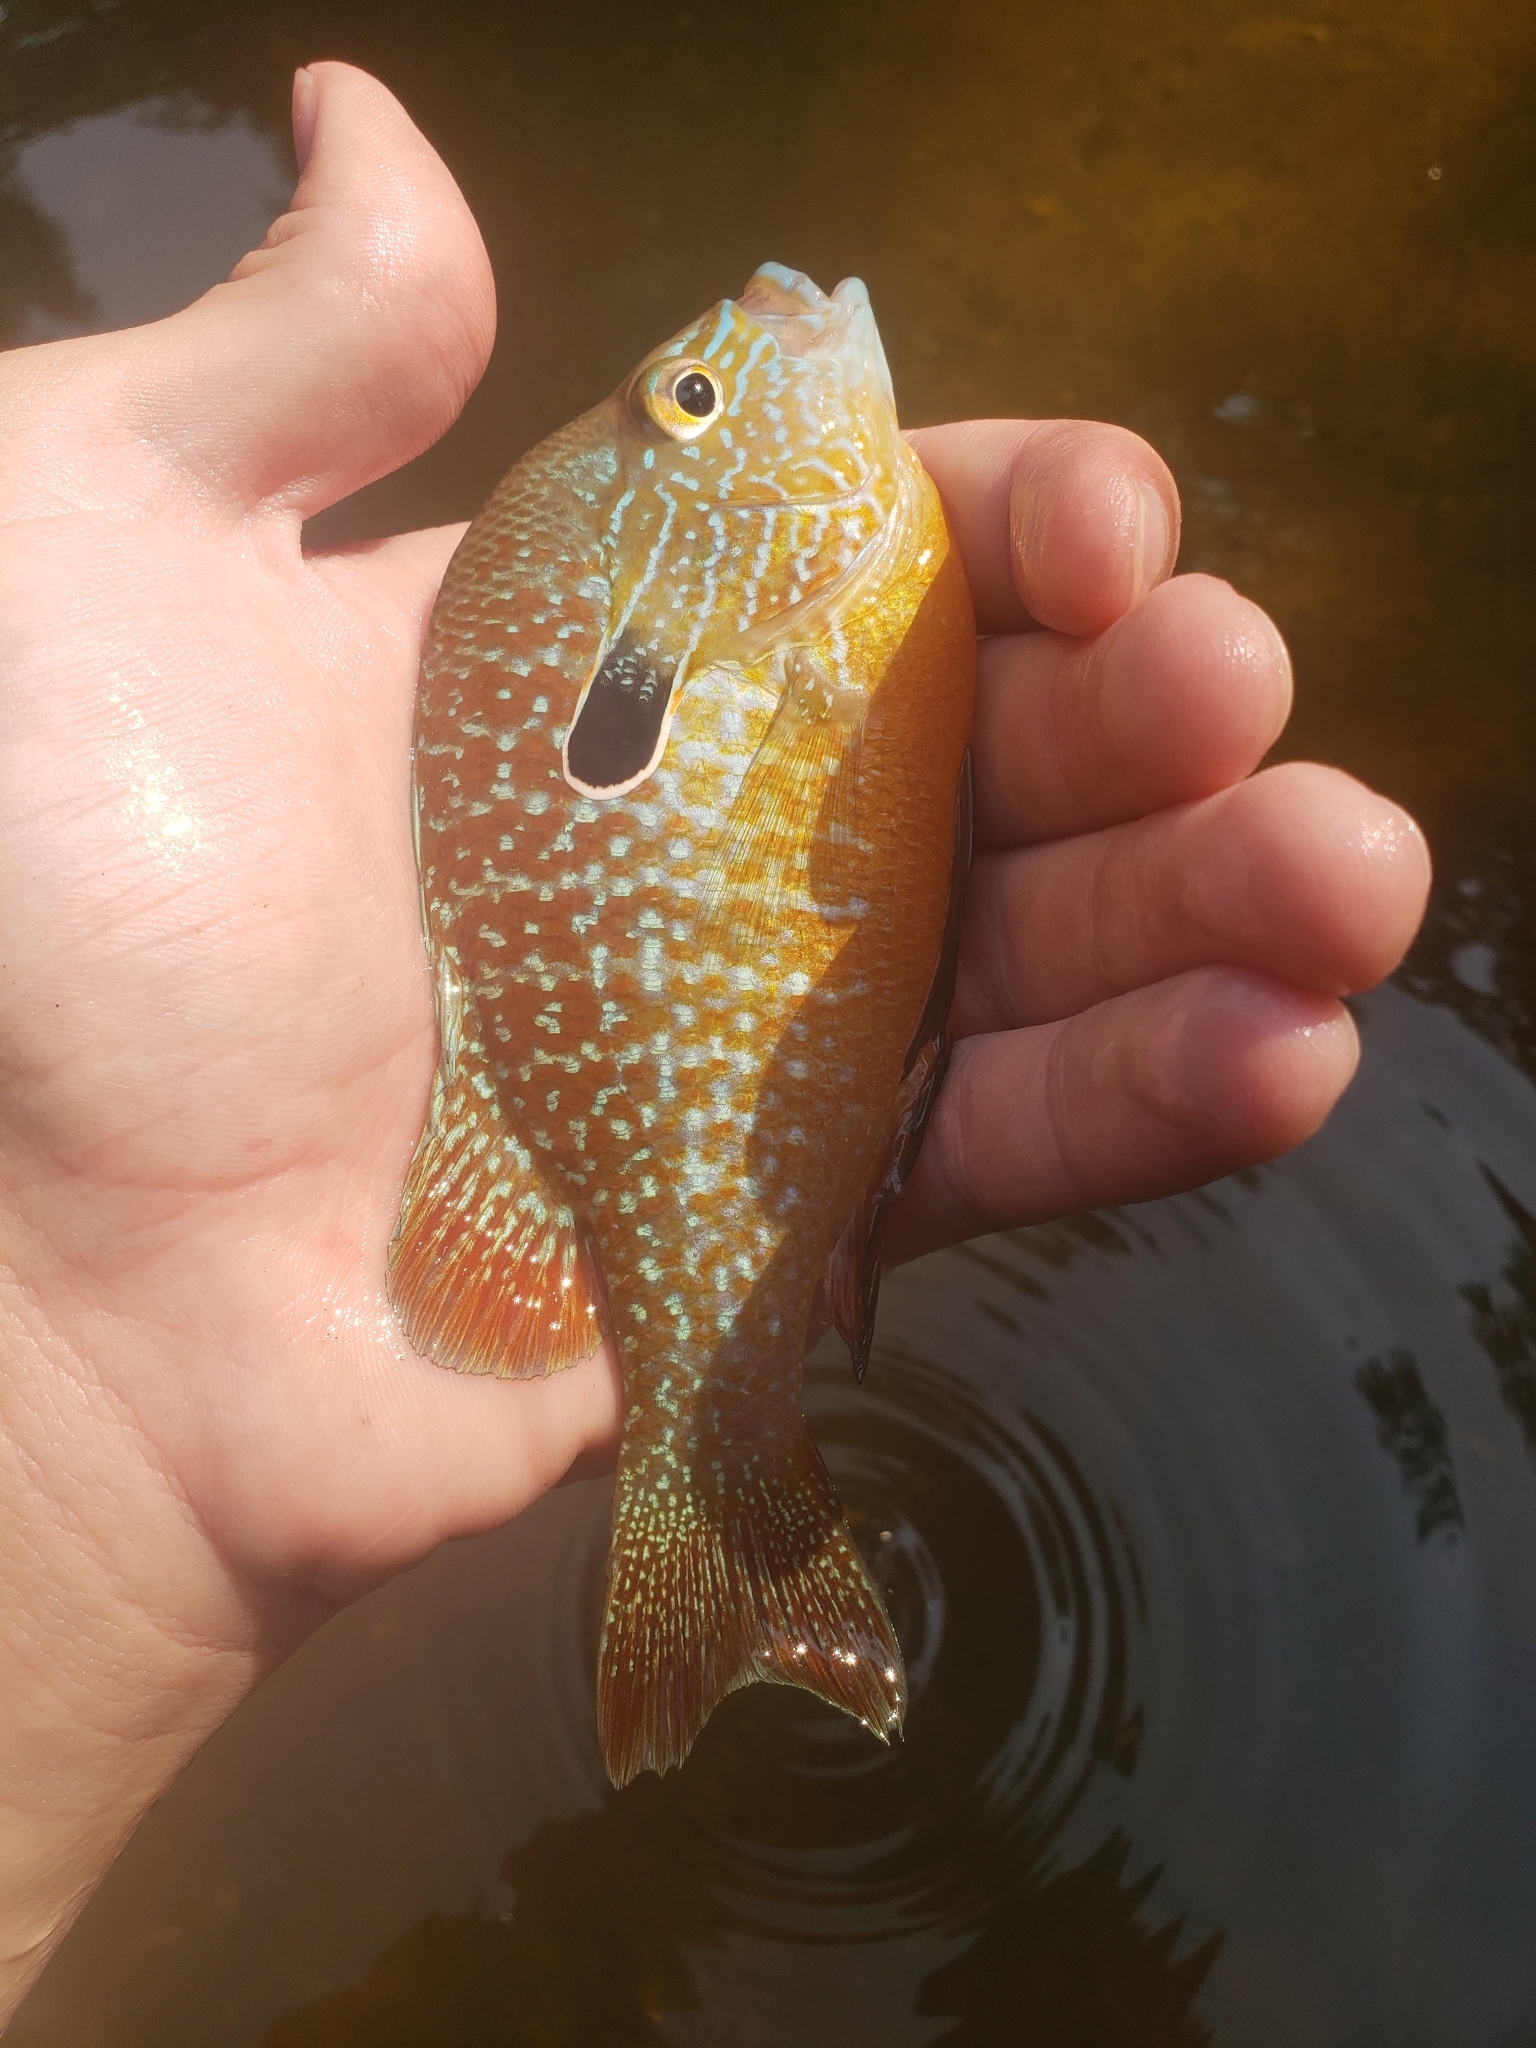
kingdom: Animalia
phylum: Chordata
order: Perciformes
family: Centrarchidae
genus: Lepomis
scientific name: Lepomis megalotis
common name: Longear sunfish
